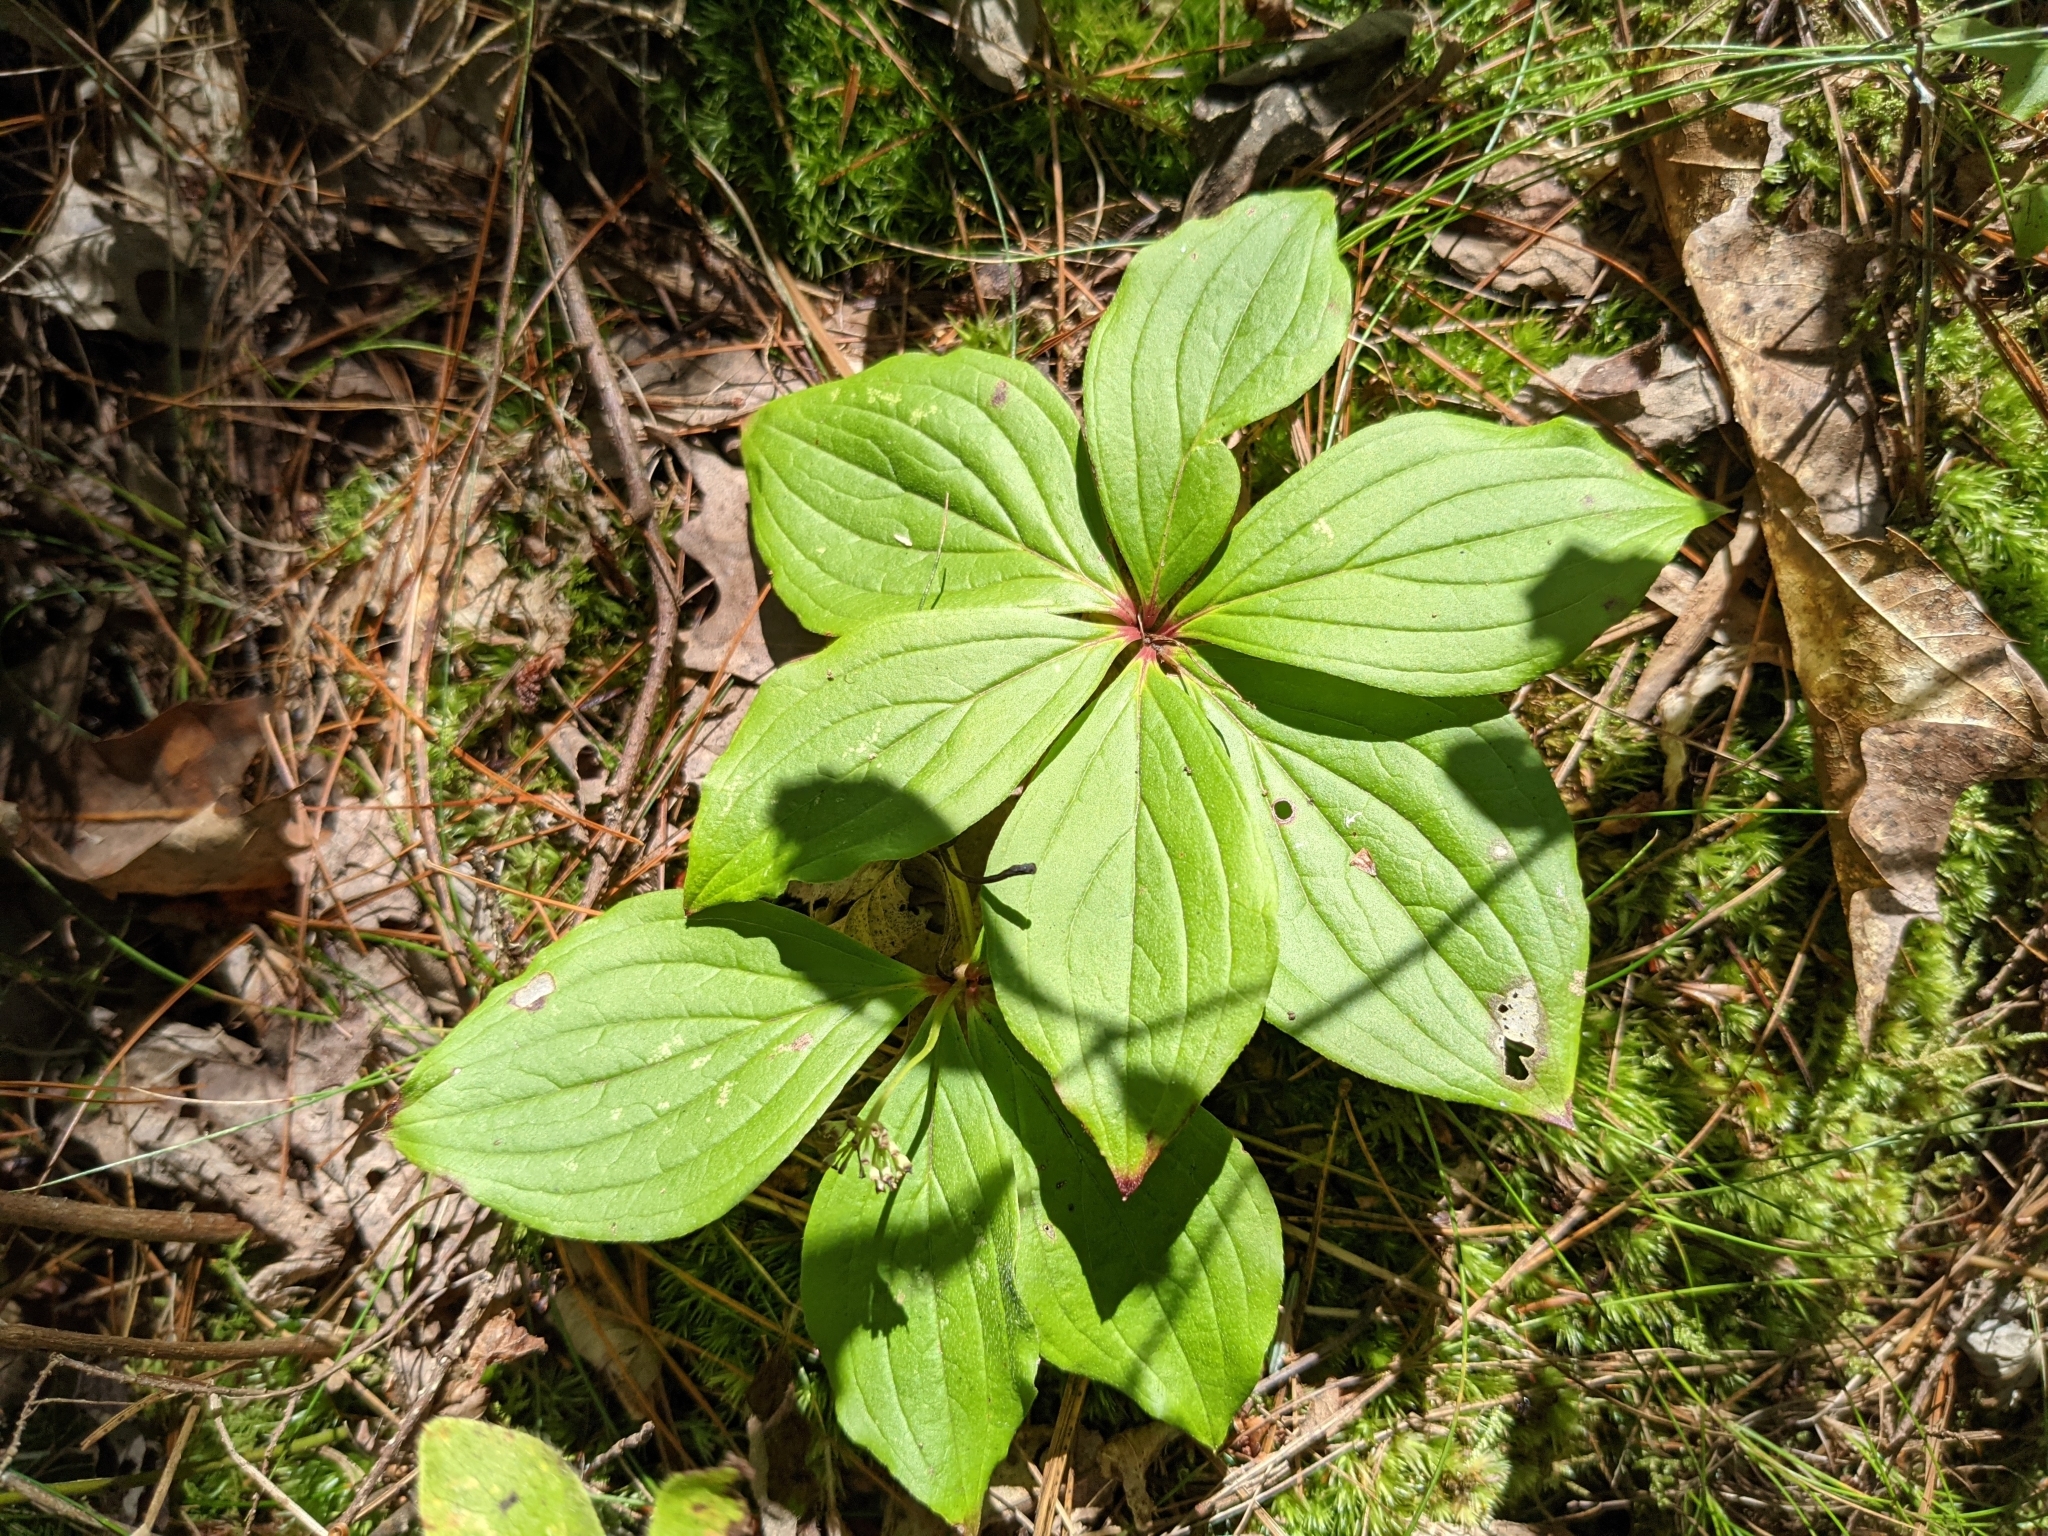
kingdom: Plantae
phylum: Tracheophyta
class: Magnoliopsida
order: Cornales
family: Cornaceae
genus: Cornus
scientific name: Cornus canadensis
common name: Creeping dogwood
